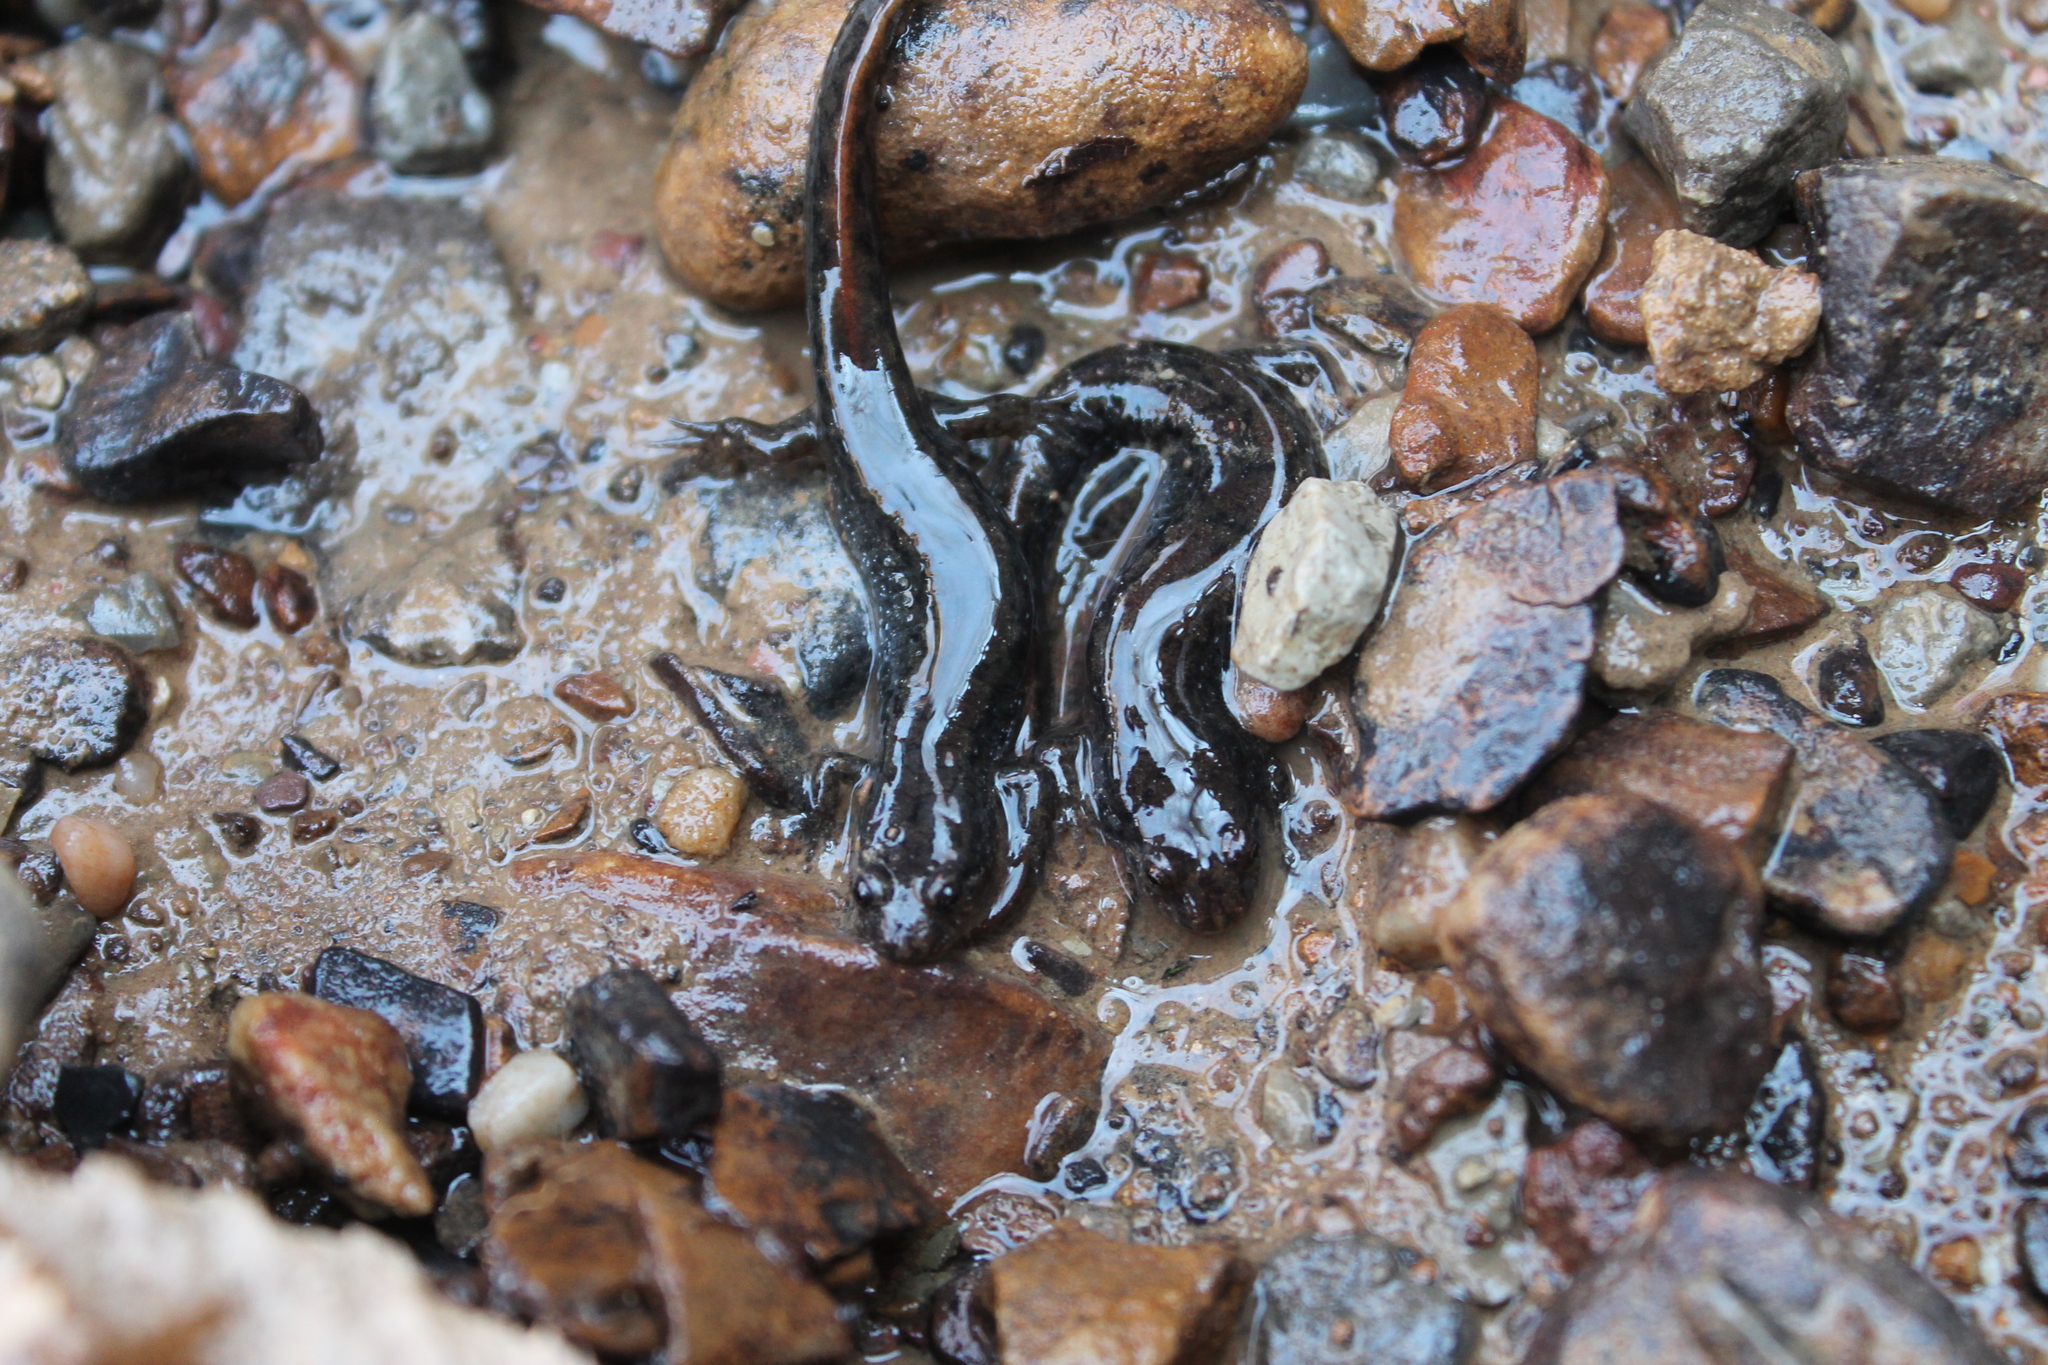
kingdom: Animalia
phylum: Chordata
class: Amphibia
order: Caudata
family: Plethodontidae
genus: Desmognathus
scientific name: Desmognathus fuscus
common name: Northern dusky salamander
